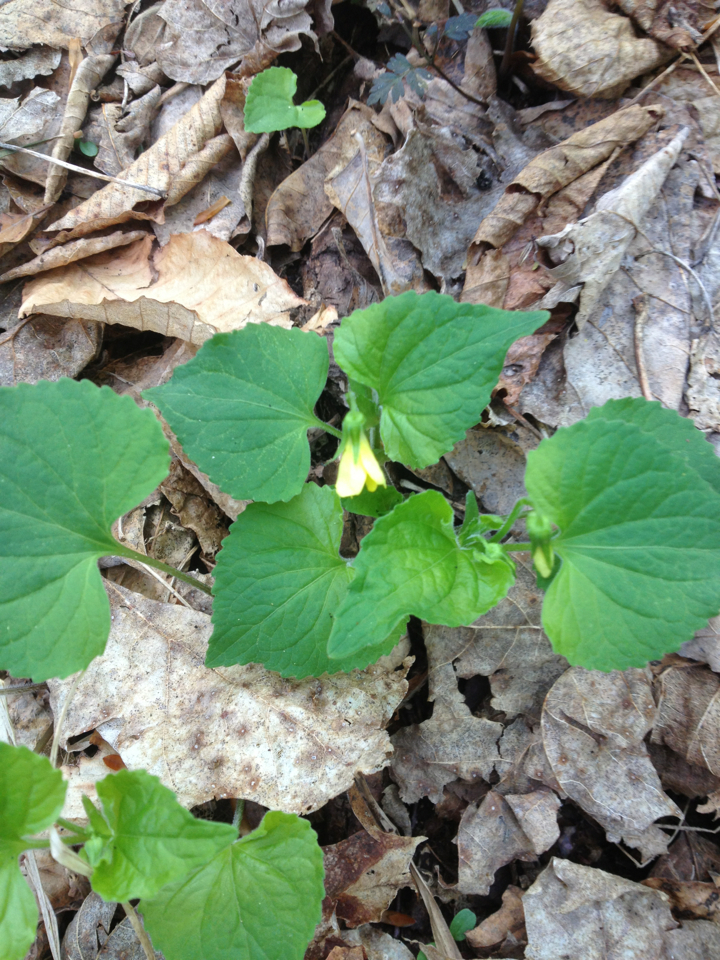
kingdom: Plantae
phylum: Tracheophyta
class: Magnoliopsida
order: Malpighiales
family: Violaceae
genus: Viola
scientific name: Viola eriocarpa
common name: Smooth yellow violet
